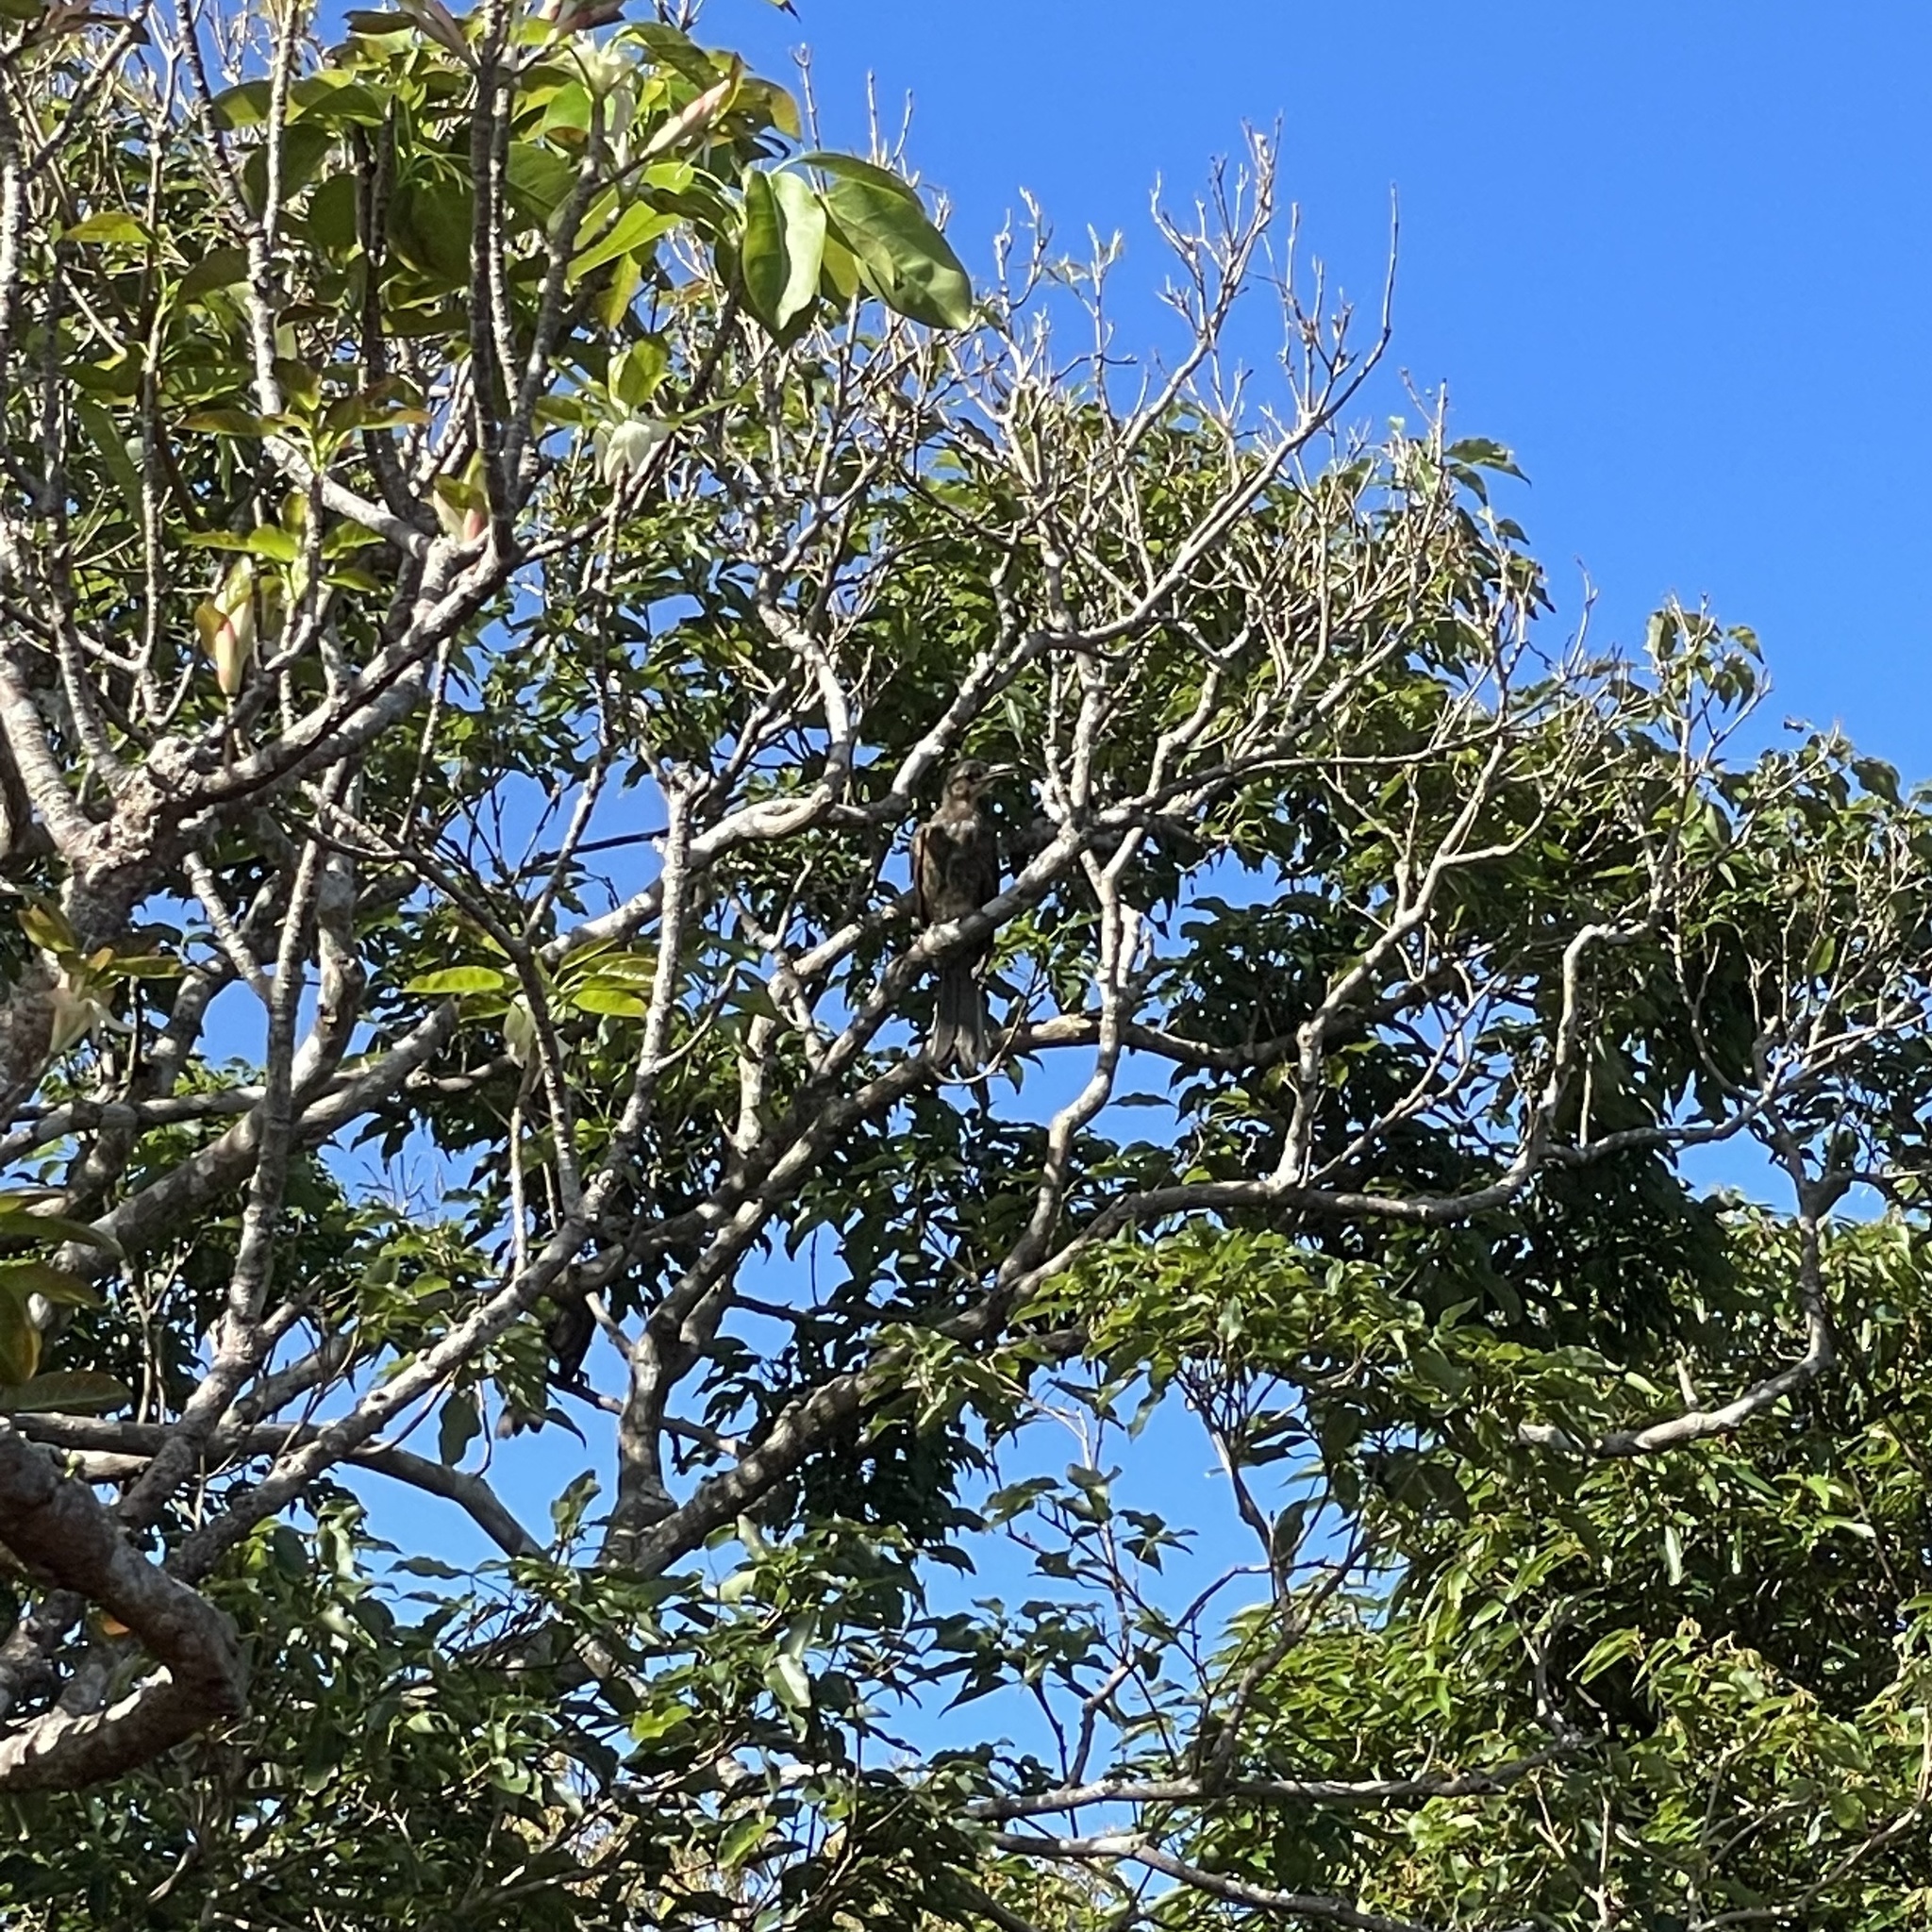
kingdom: Animalia
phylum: Chordata
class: Aves
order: Passeriformes
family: Pycnonotidae
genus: Hypsipetes
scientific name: Hypsipetes amaurotis
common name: Brown-eared bulbul
